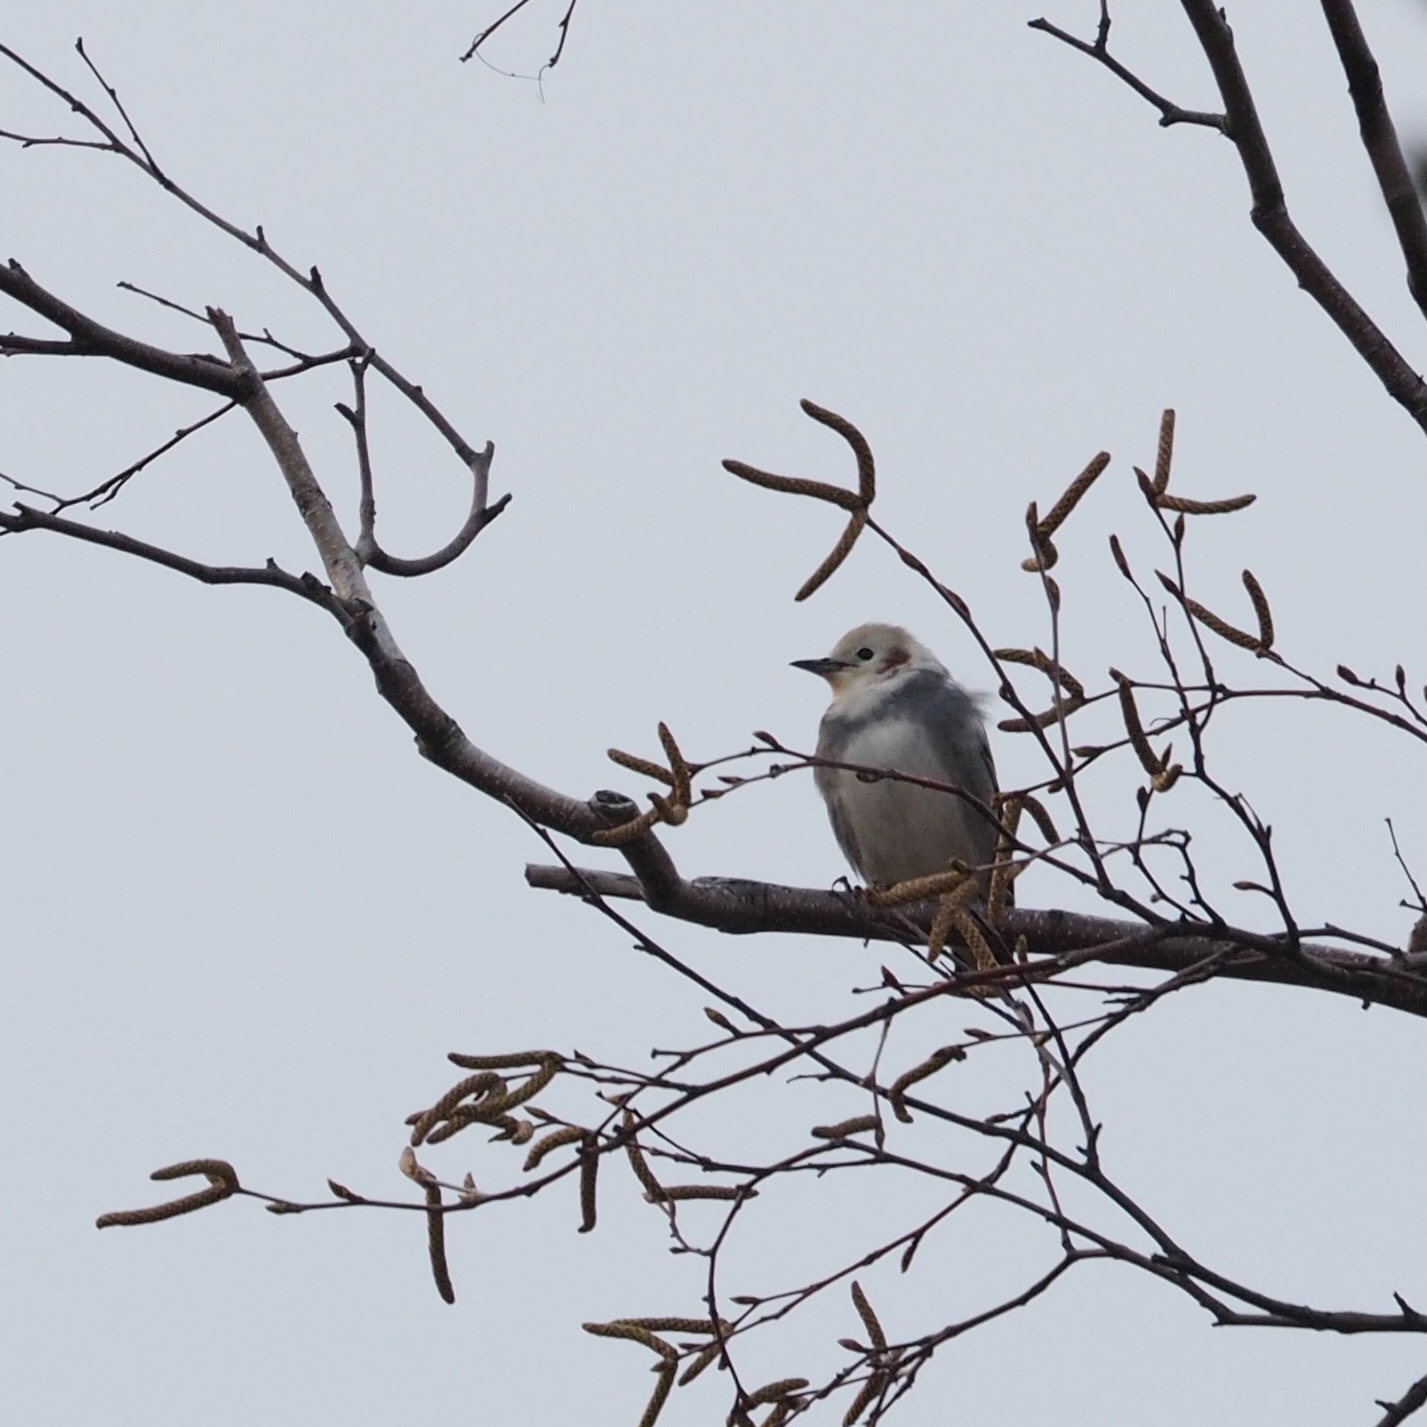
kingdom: Animalia
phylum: Chordata
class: Aves
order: Passeriformes
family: Sturnidae
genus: Agropsar
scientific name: Agropsar philippensis
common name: Chestnut-cheeked starling
